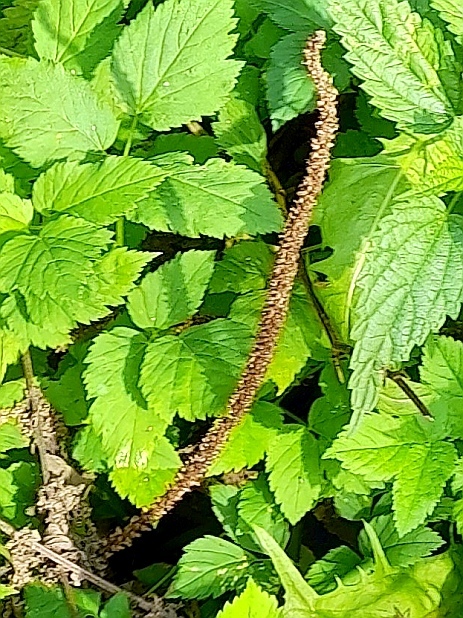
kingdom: Plantae
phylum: Tracheophyta
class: Magnoliopsida
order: Lamiales
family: Plantaginaceae
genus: Plantago
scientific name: Plantago major
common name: Common plantain
